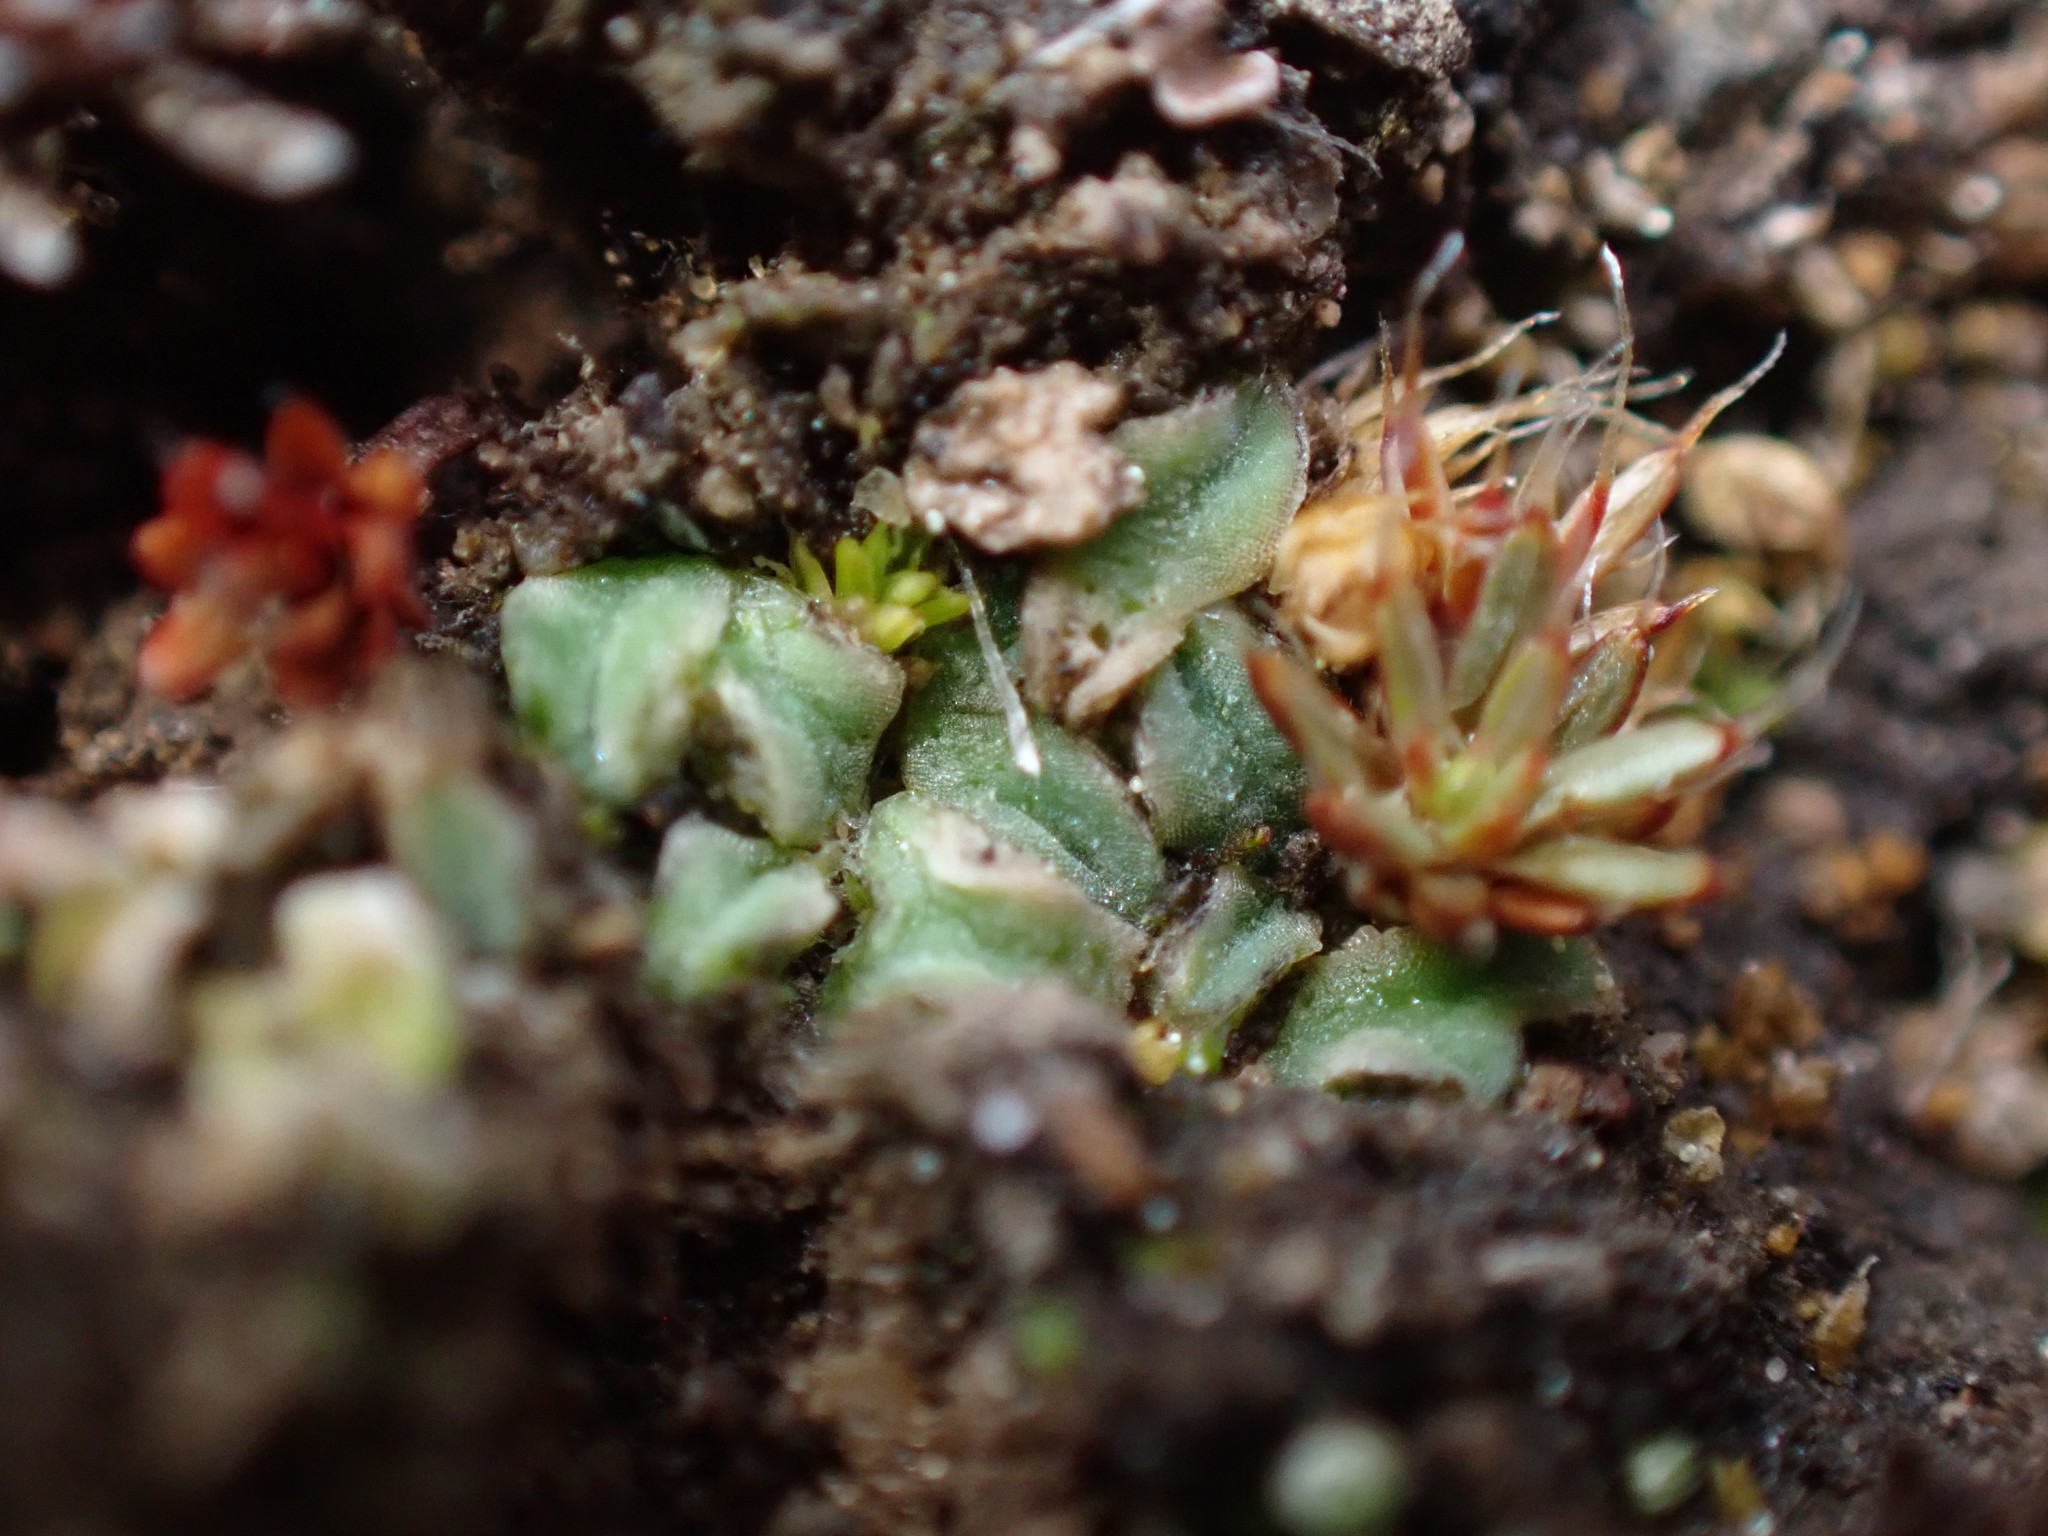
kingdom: Plantae
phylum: Marchantiophyta
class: Marchantiopsida
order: Marchantiales
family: Ricciaceae
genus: Riccia
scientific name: Riccia sorocarpa
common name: Common crystalwort
